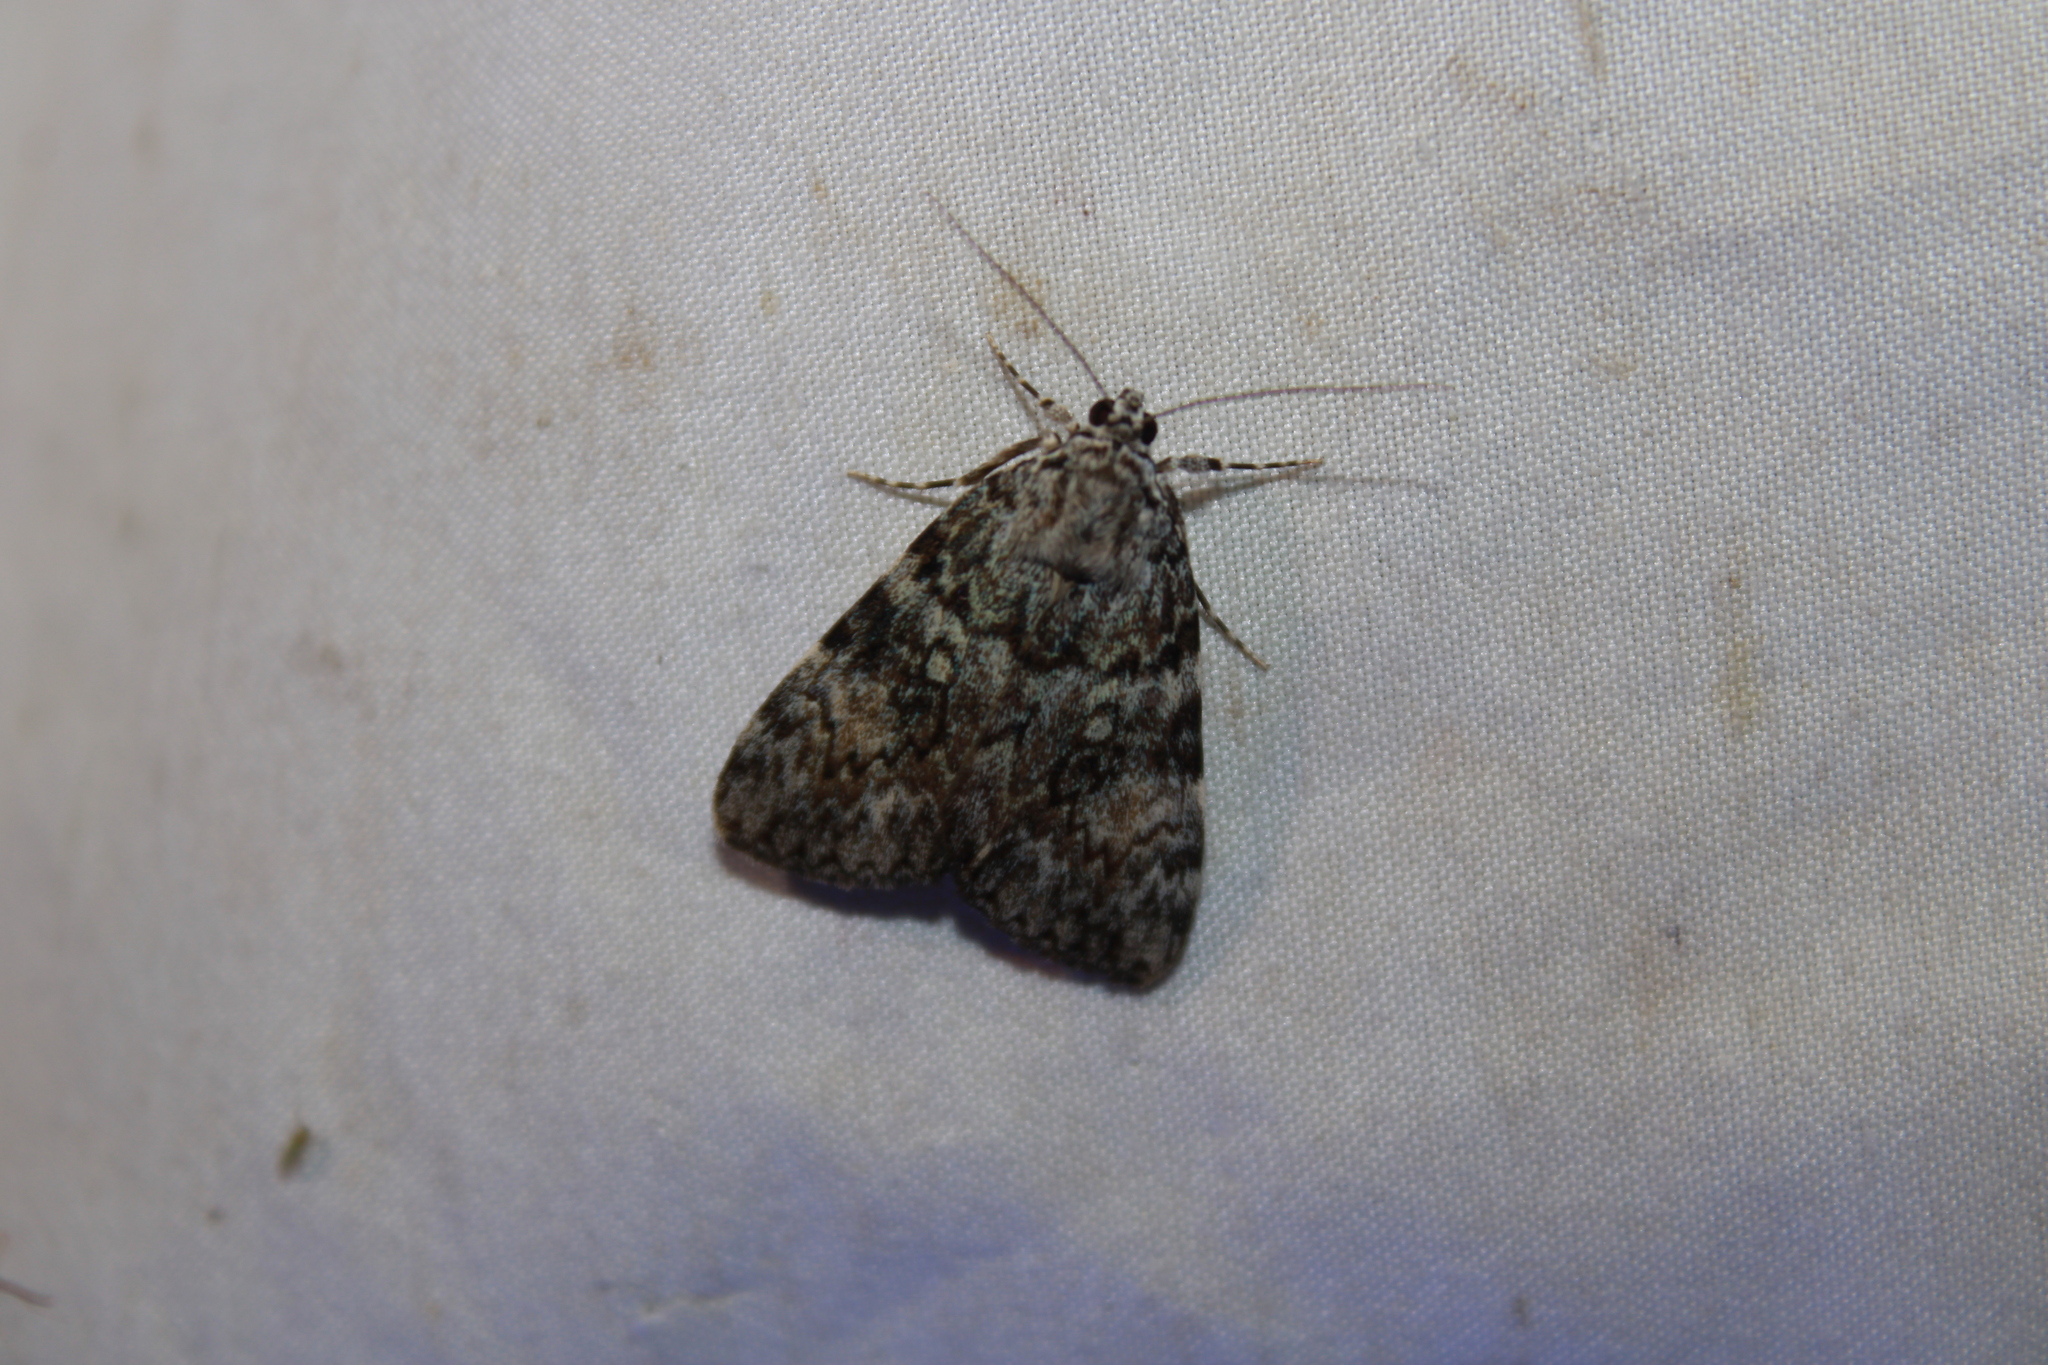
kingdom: Animalia
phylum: Arthropoda
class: Insecta
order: Lepidoptera
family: Erebidae
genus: Catocala
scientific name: Catocala lineella
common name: Little lined underwing
